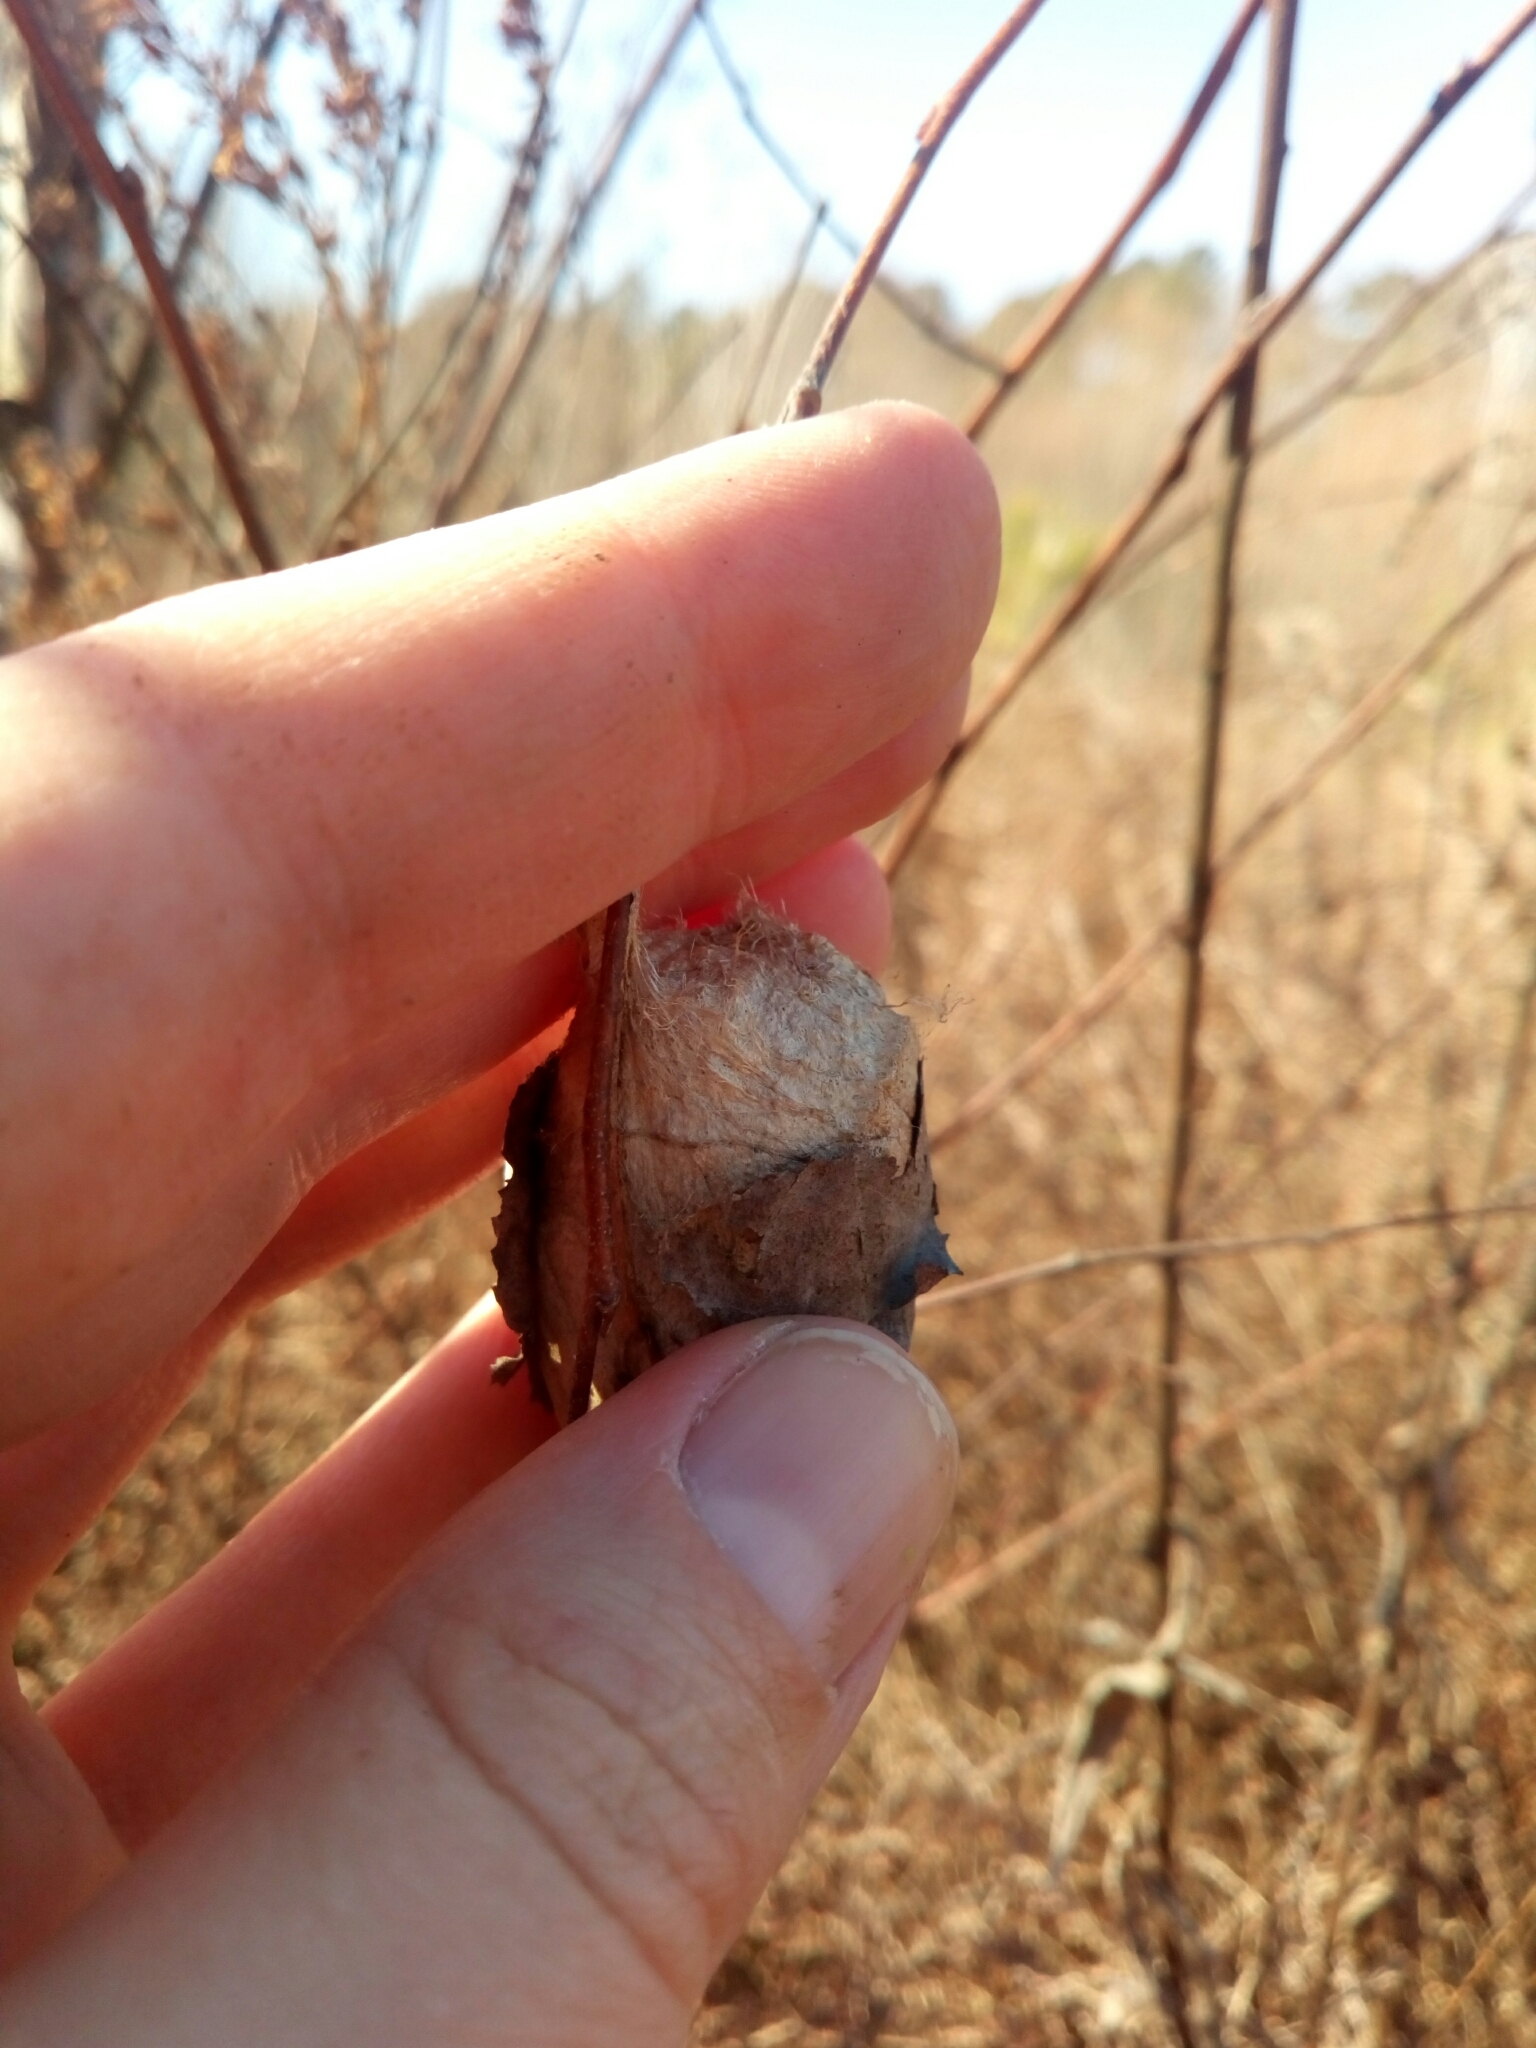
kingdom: Animalia
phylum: Arthropoda
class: Insecta
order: Lepidoptera
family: Saturniidae
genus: Antheraea
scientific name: Antheraea polyphemus
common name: Polyphemus moth
